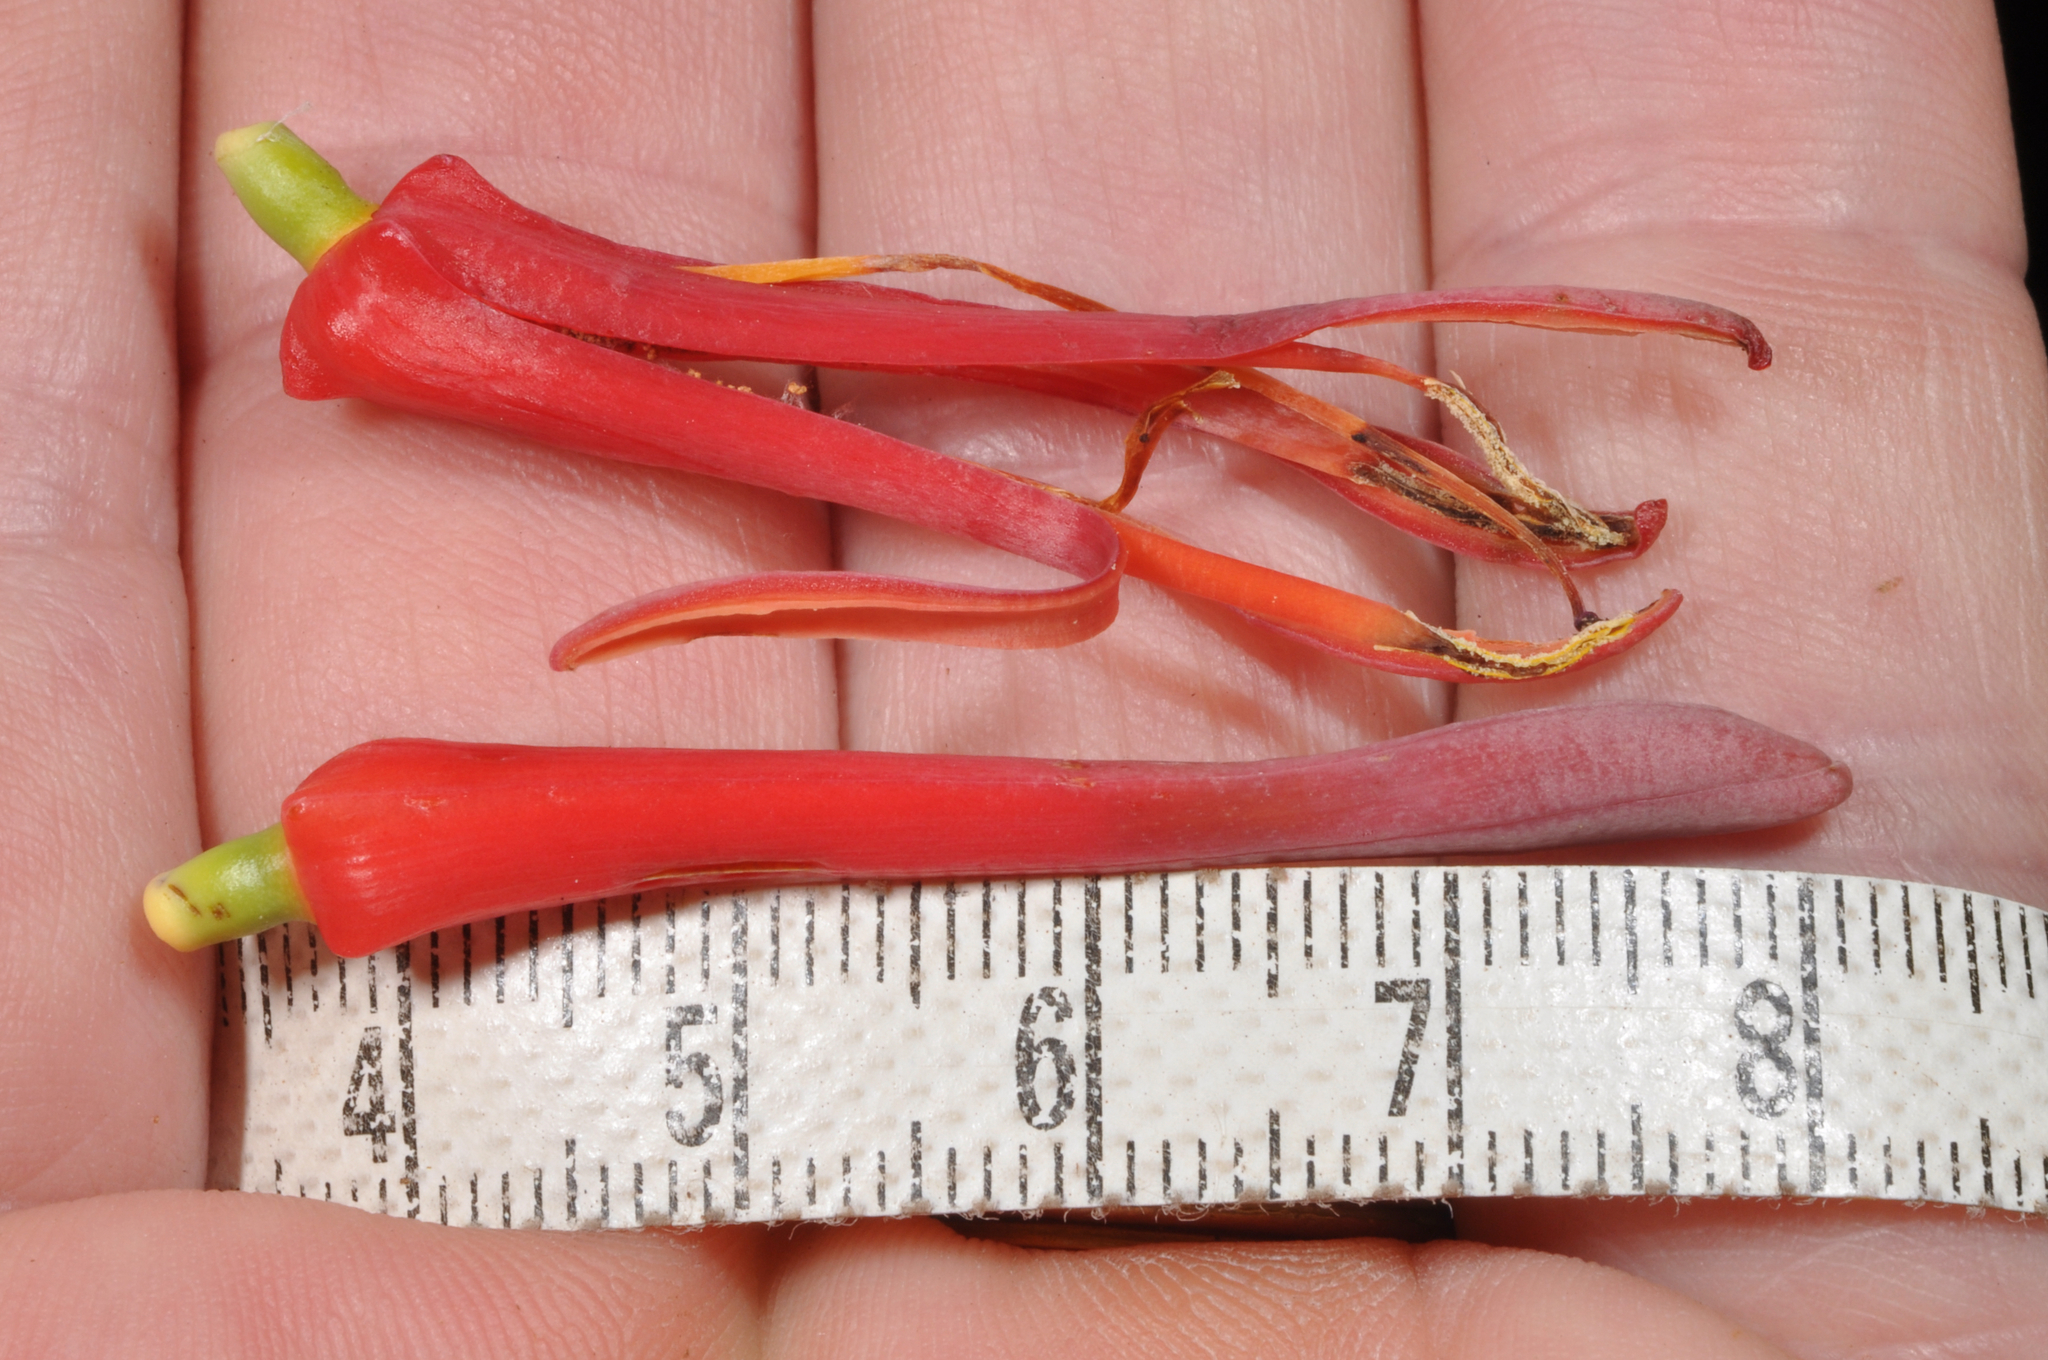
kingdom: Plantae
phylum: Tracheophyta
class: Magnoliopsida
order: Santalales
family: Loranthaceae
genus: Peraxilla
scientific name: Peraxilla colensoi
